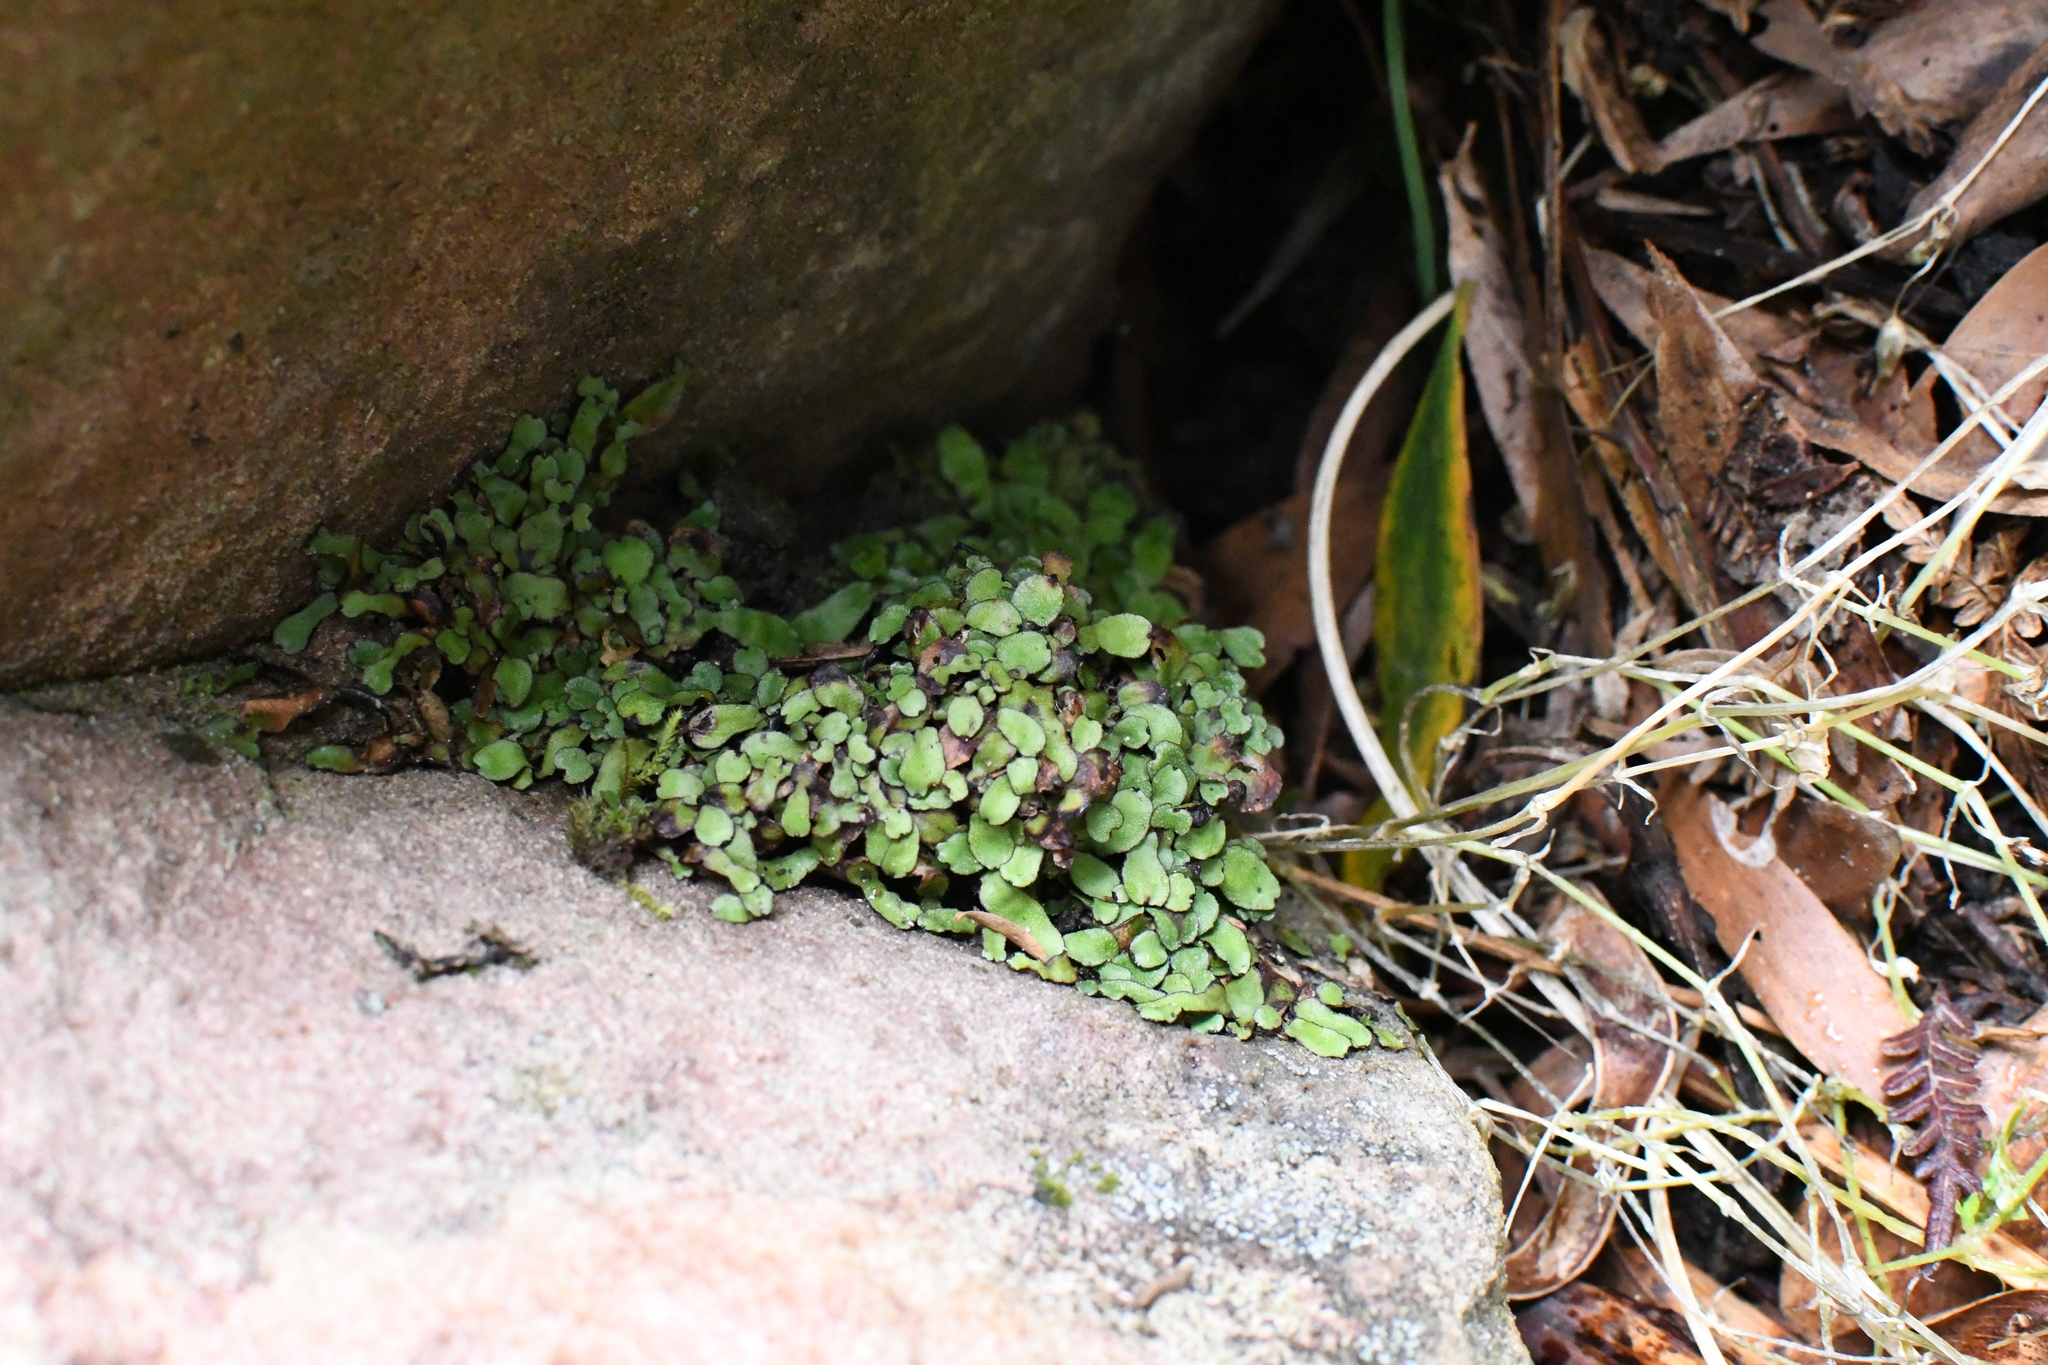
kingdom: Plantae
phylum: Marchantiophyta
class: Marchantiopsida
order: Marchantiales
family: Targioniaceae
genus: Targionia
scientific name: Targionia hypophylla
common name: Orobus-seed liverwort
